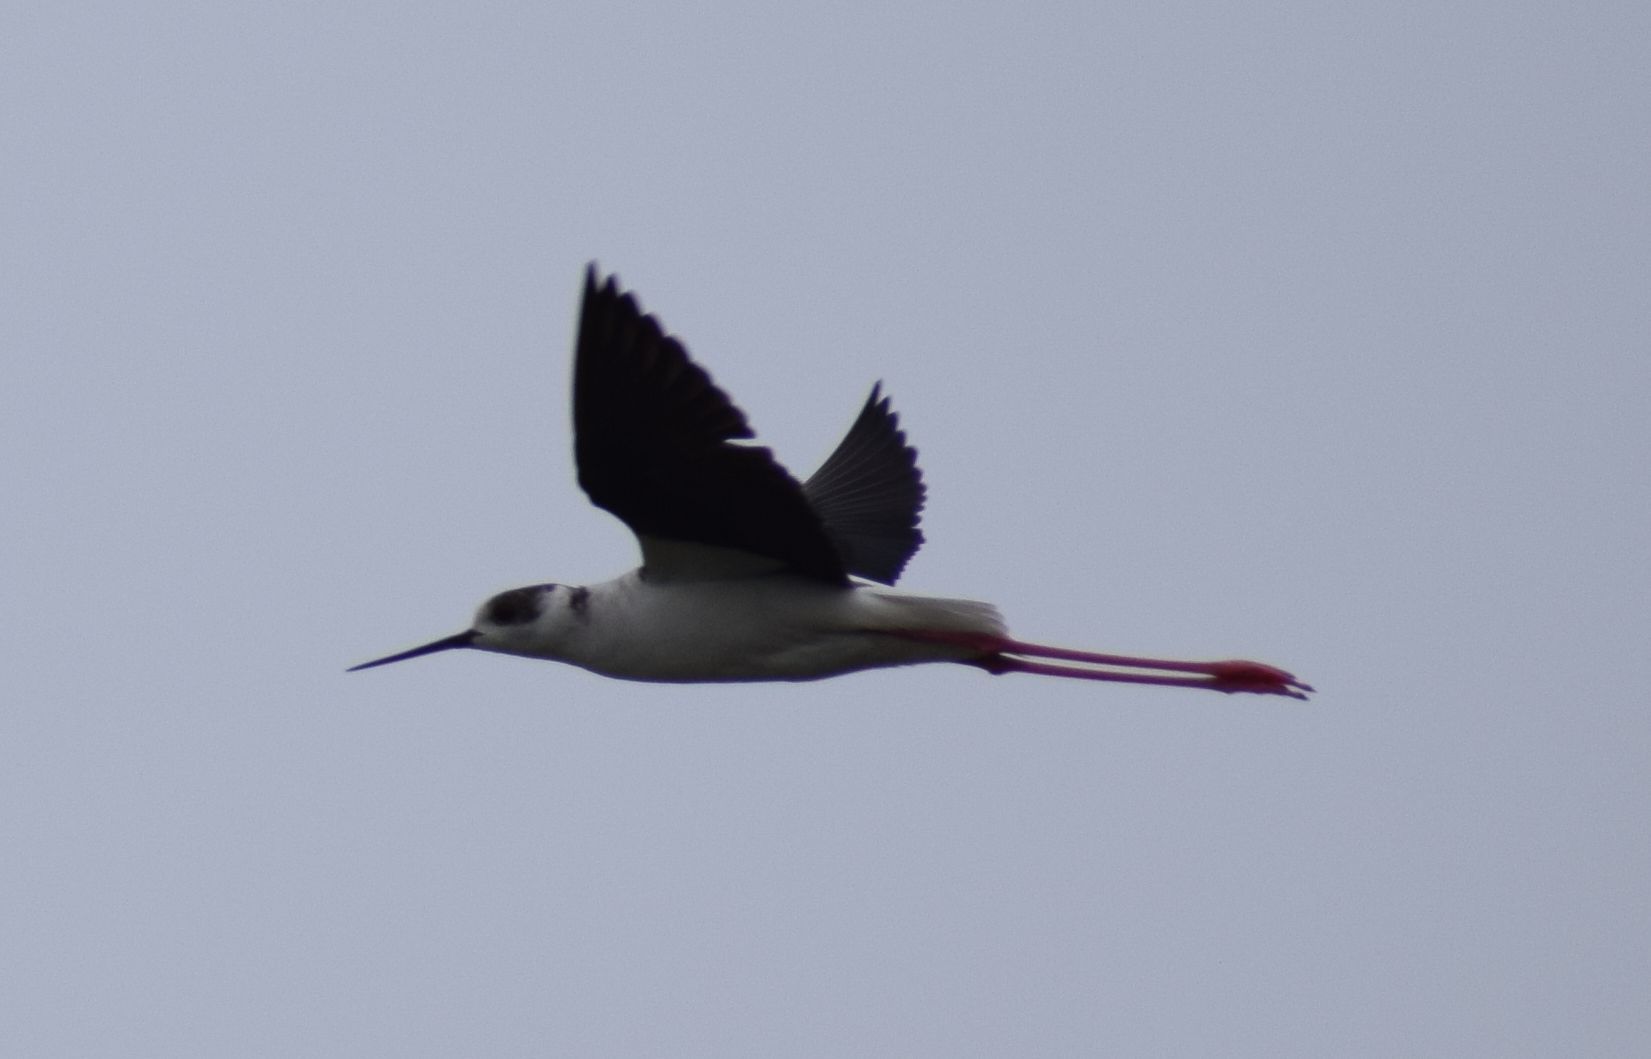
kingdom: Animalia
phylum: Chordata
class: Aves
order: Charadriiformes
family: Recurvirostridae
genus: Himantopus
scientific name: Himantopus himantopus
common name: Black-winged stilt
